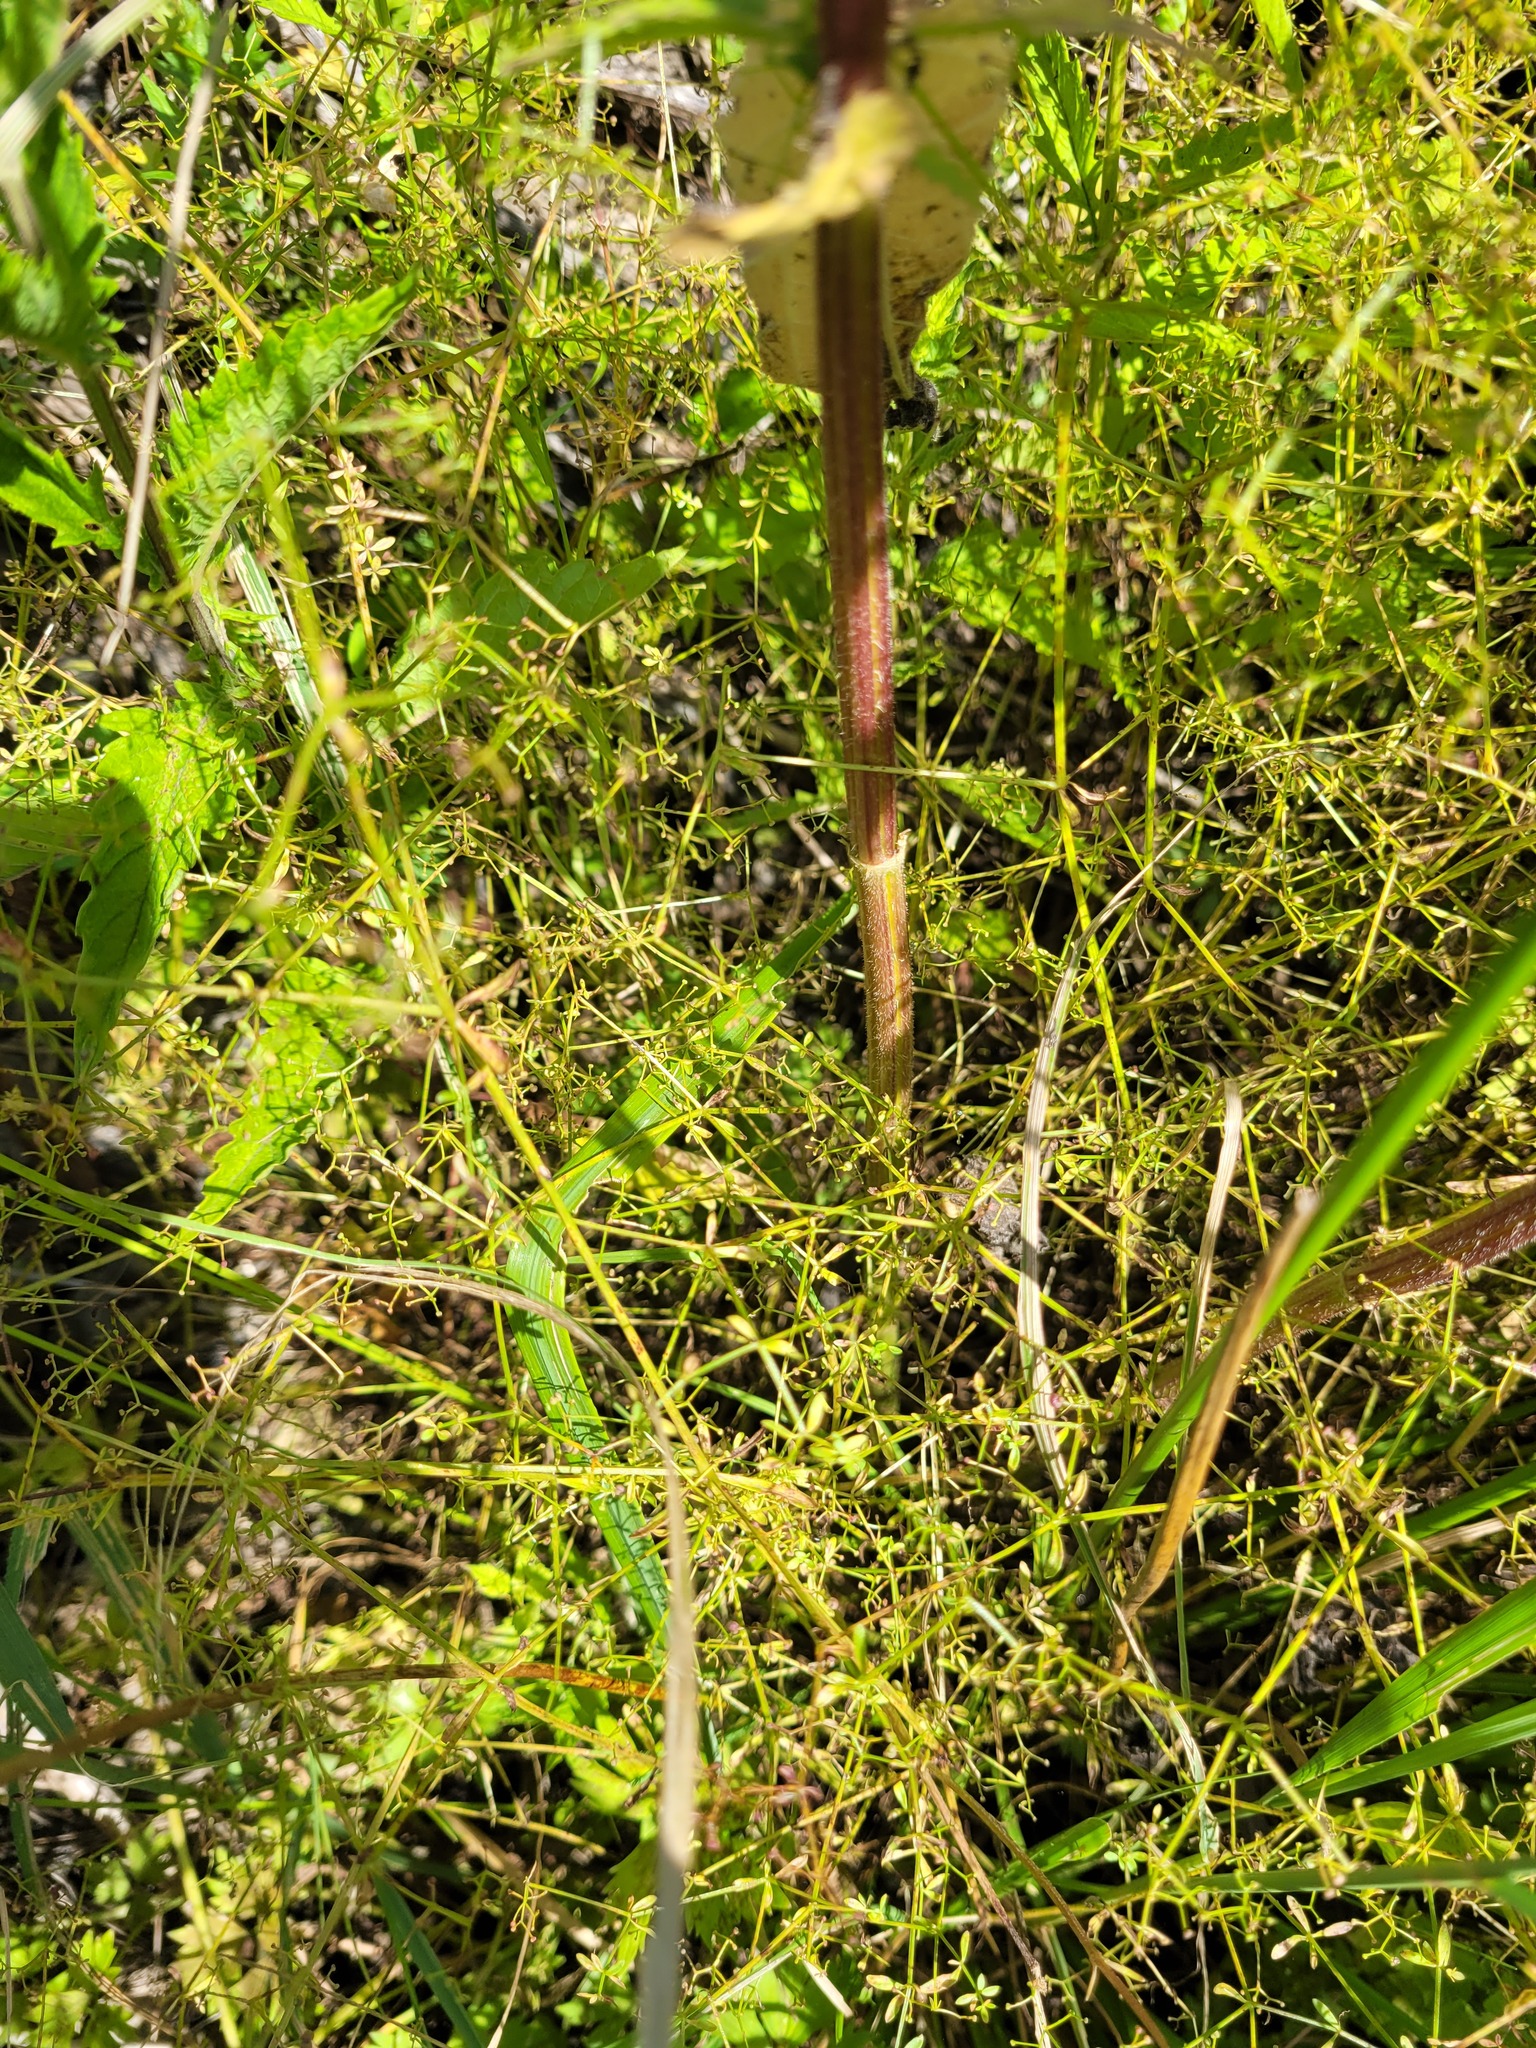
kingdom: Plantae
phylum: Tracheophyta
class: Magnoliopsida
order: Gentianales
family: Rubiaceae
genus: Galium
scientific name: Galium palustre
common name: Common marsh-bedstraw
